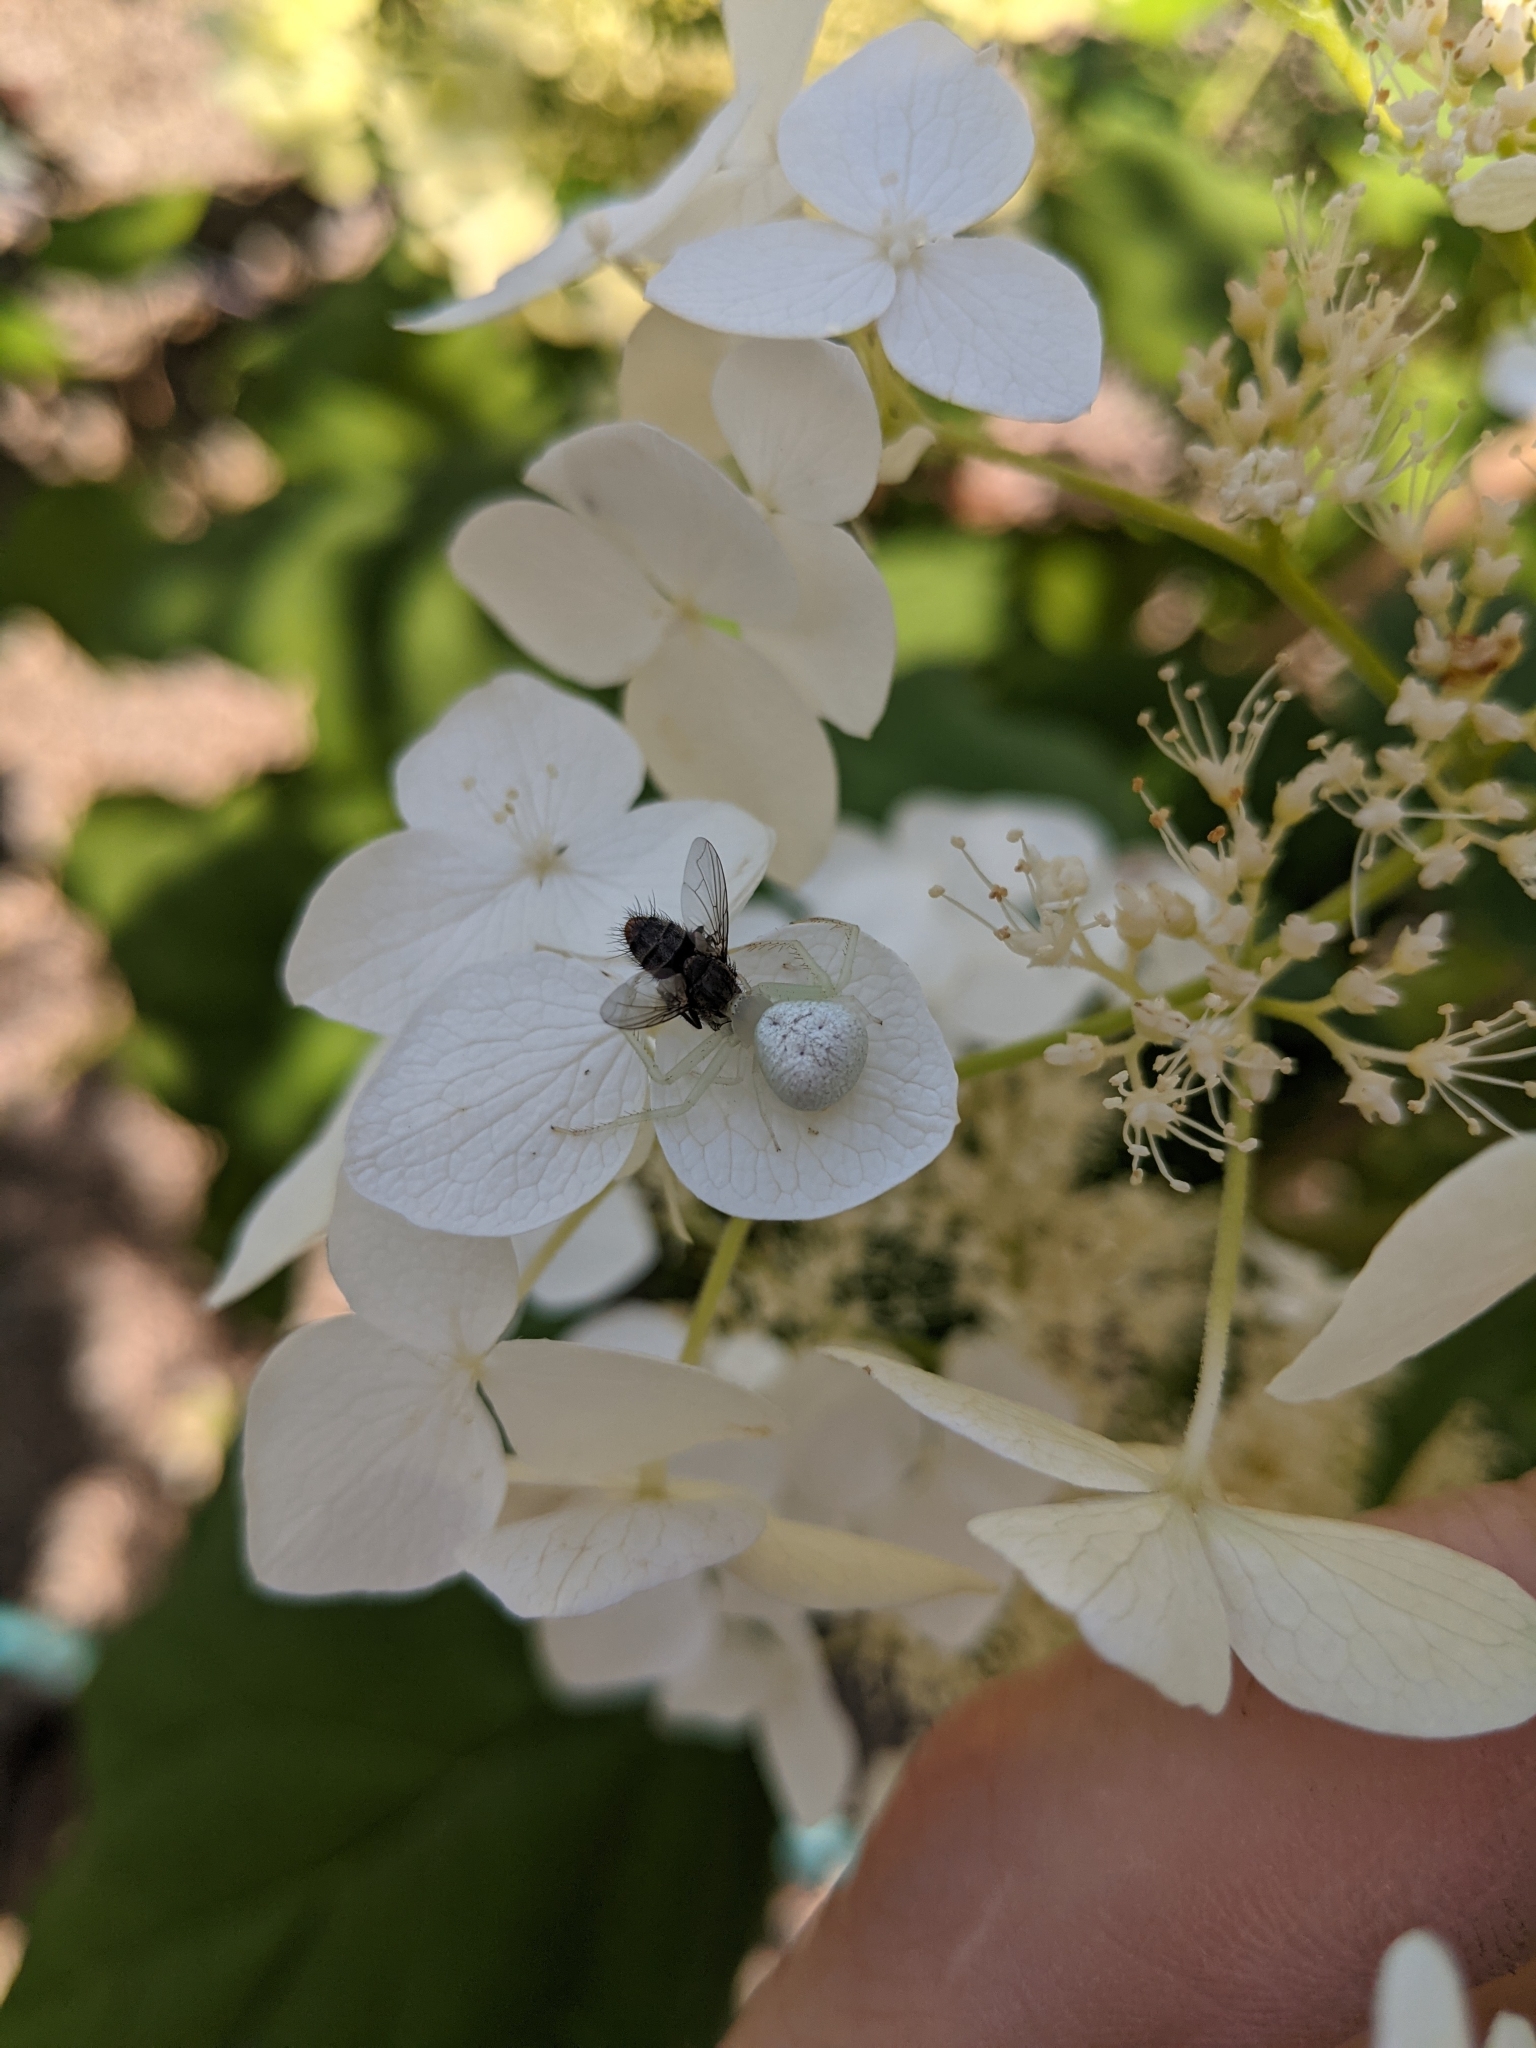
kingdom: Animalia
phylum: Arthropoda
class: Arachnida
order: Araneae
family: Thomisidae
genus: Misumessus
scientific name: Misumessus oblongus
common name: American green crab spider
